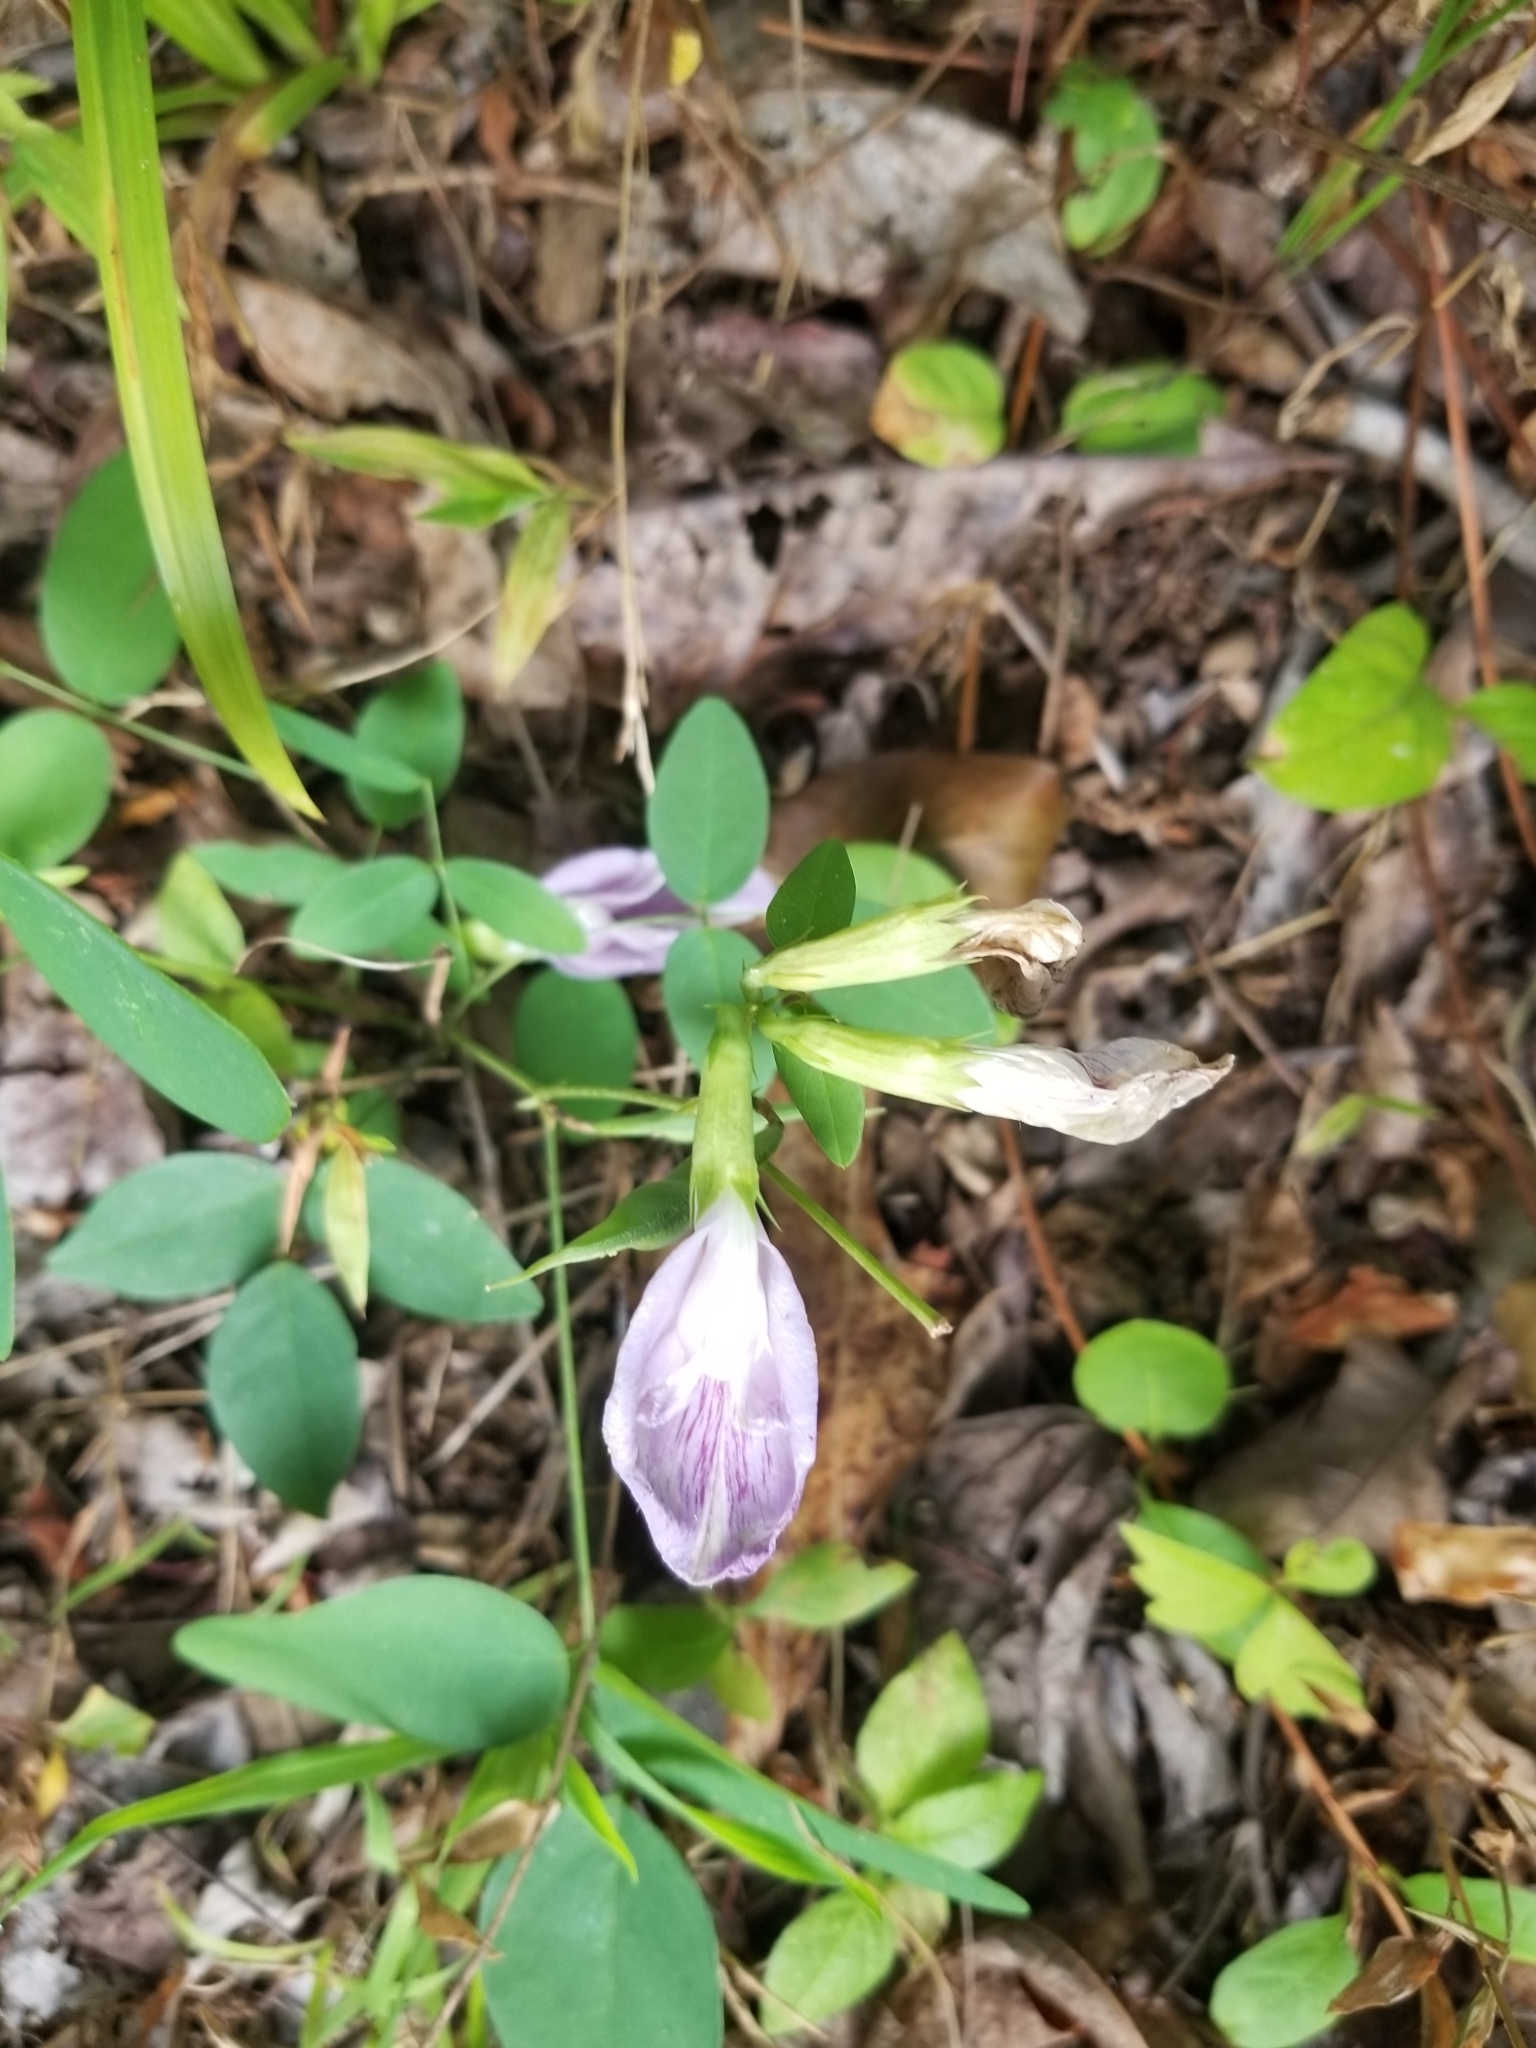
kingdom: Plantae
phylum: Tracheophyta
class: Magnoliopsida
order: Fabales
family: Fabaceae
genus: Clitoria
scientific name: Clitoria mariana
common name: Butterfly-pea
